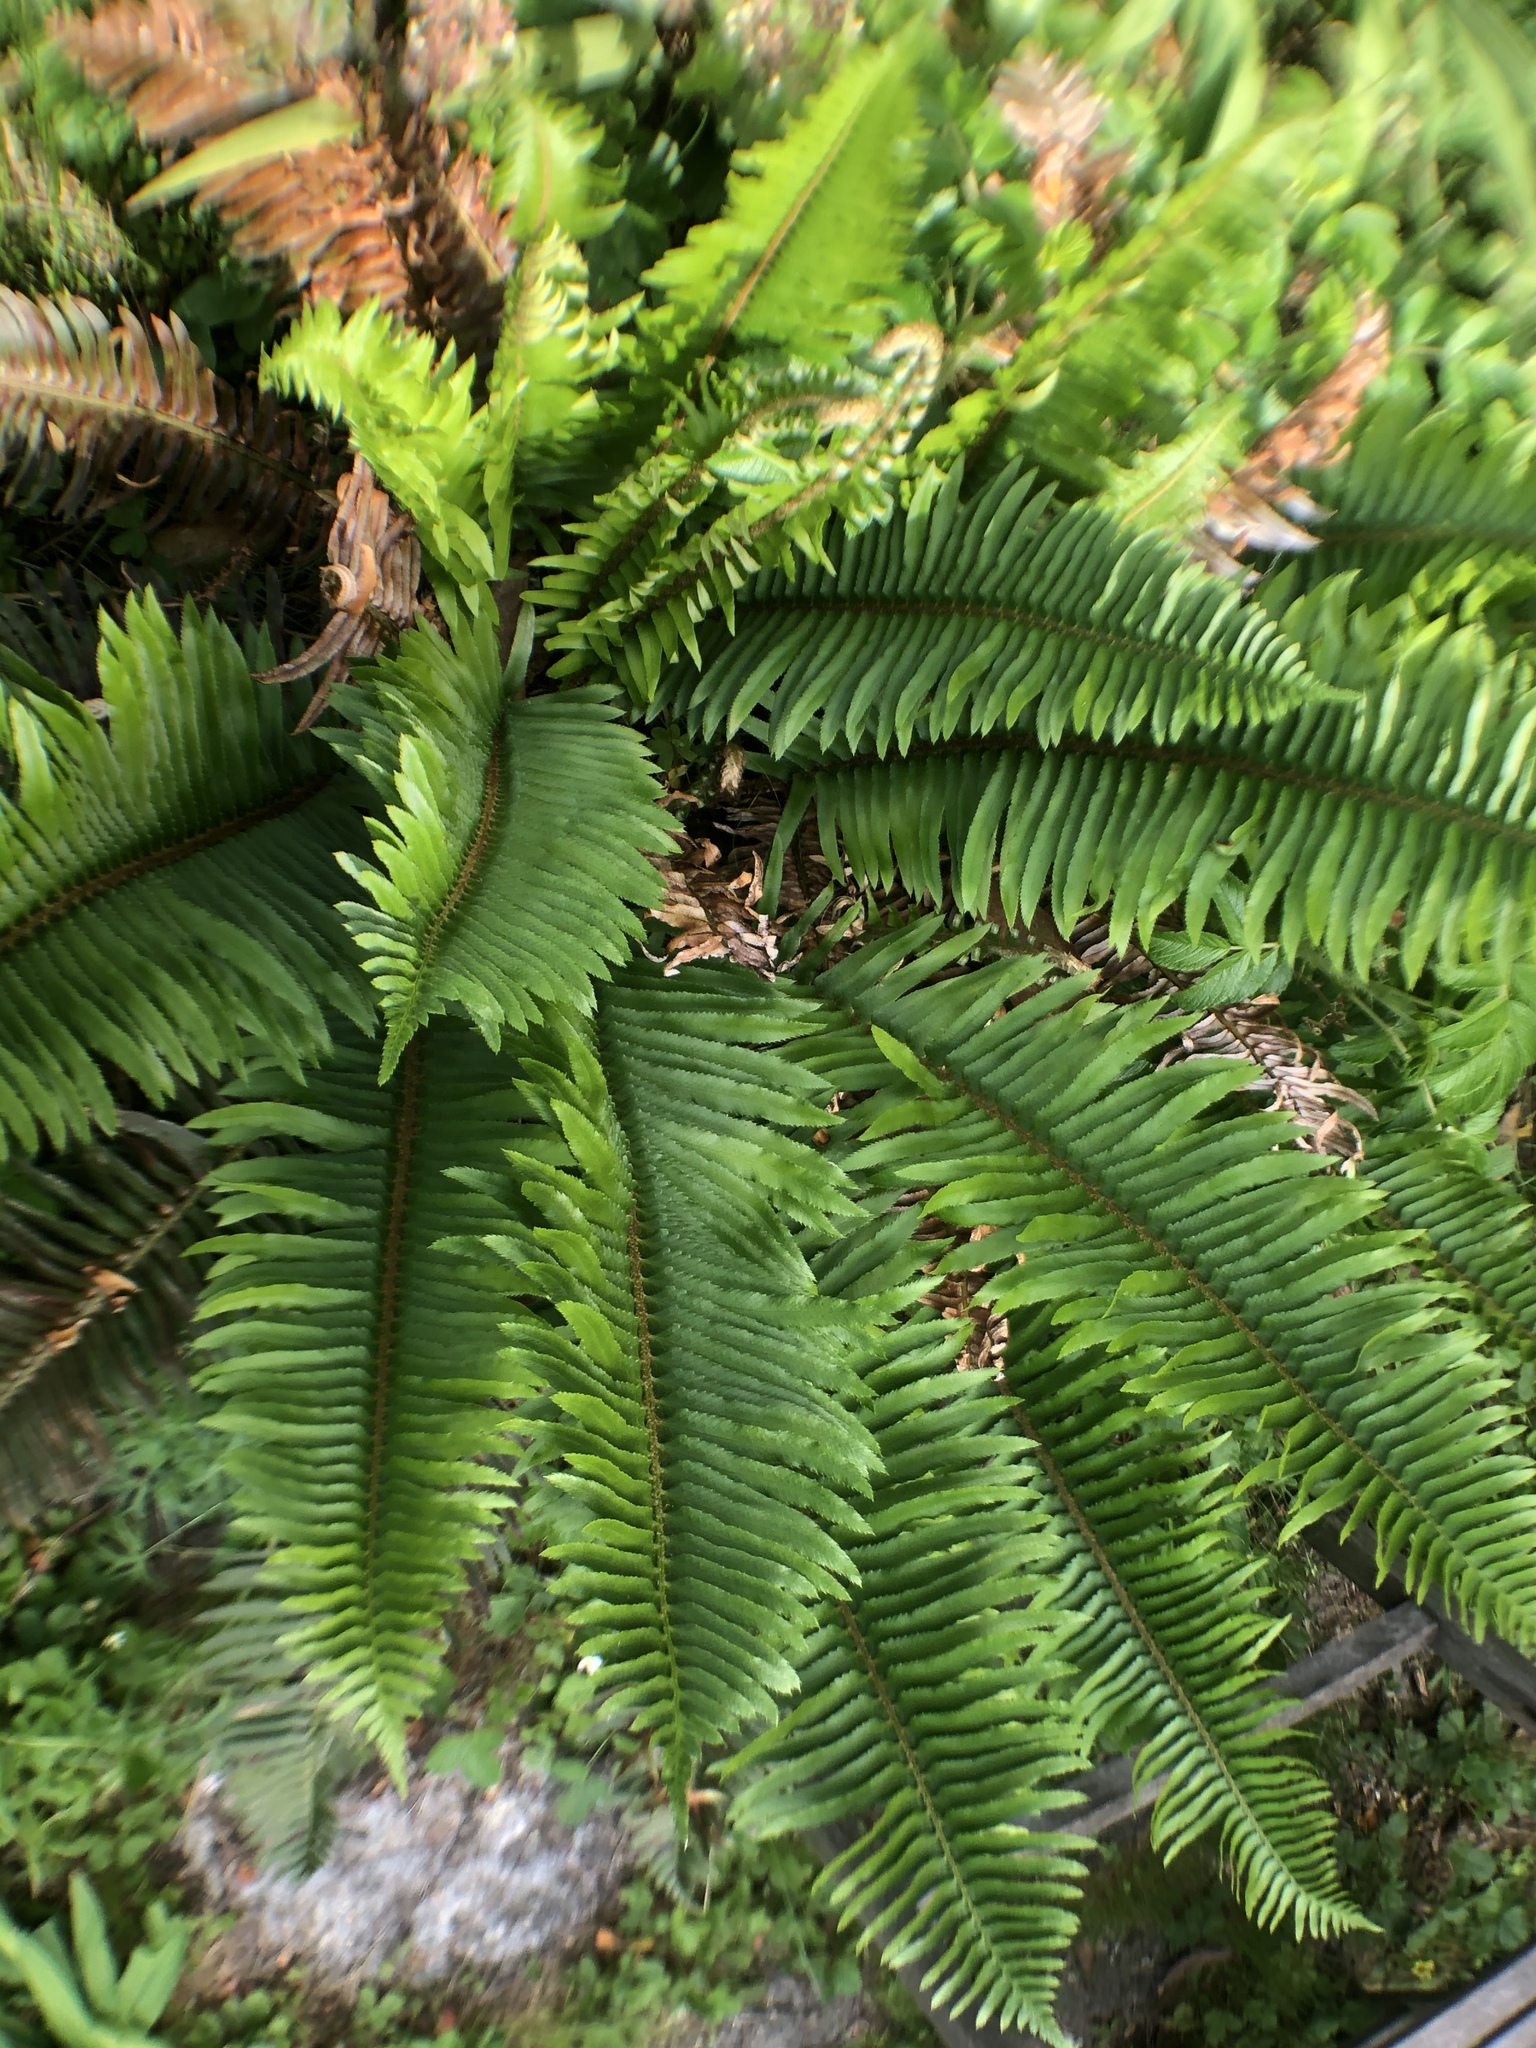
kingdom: Plantae
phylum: Tracheophyta
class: Polypodiopsida
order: Polypodiales
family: Dryopteridaceae
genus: Polystichum
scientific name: Polystichum munitum
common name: Western sword-fern
